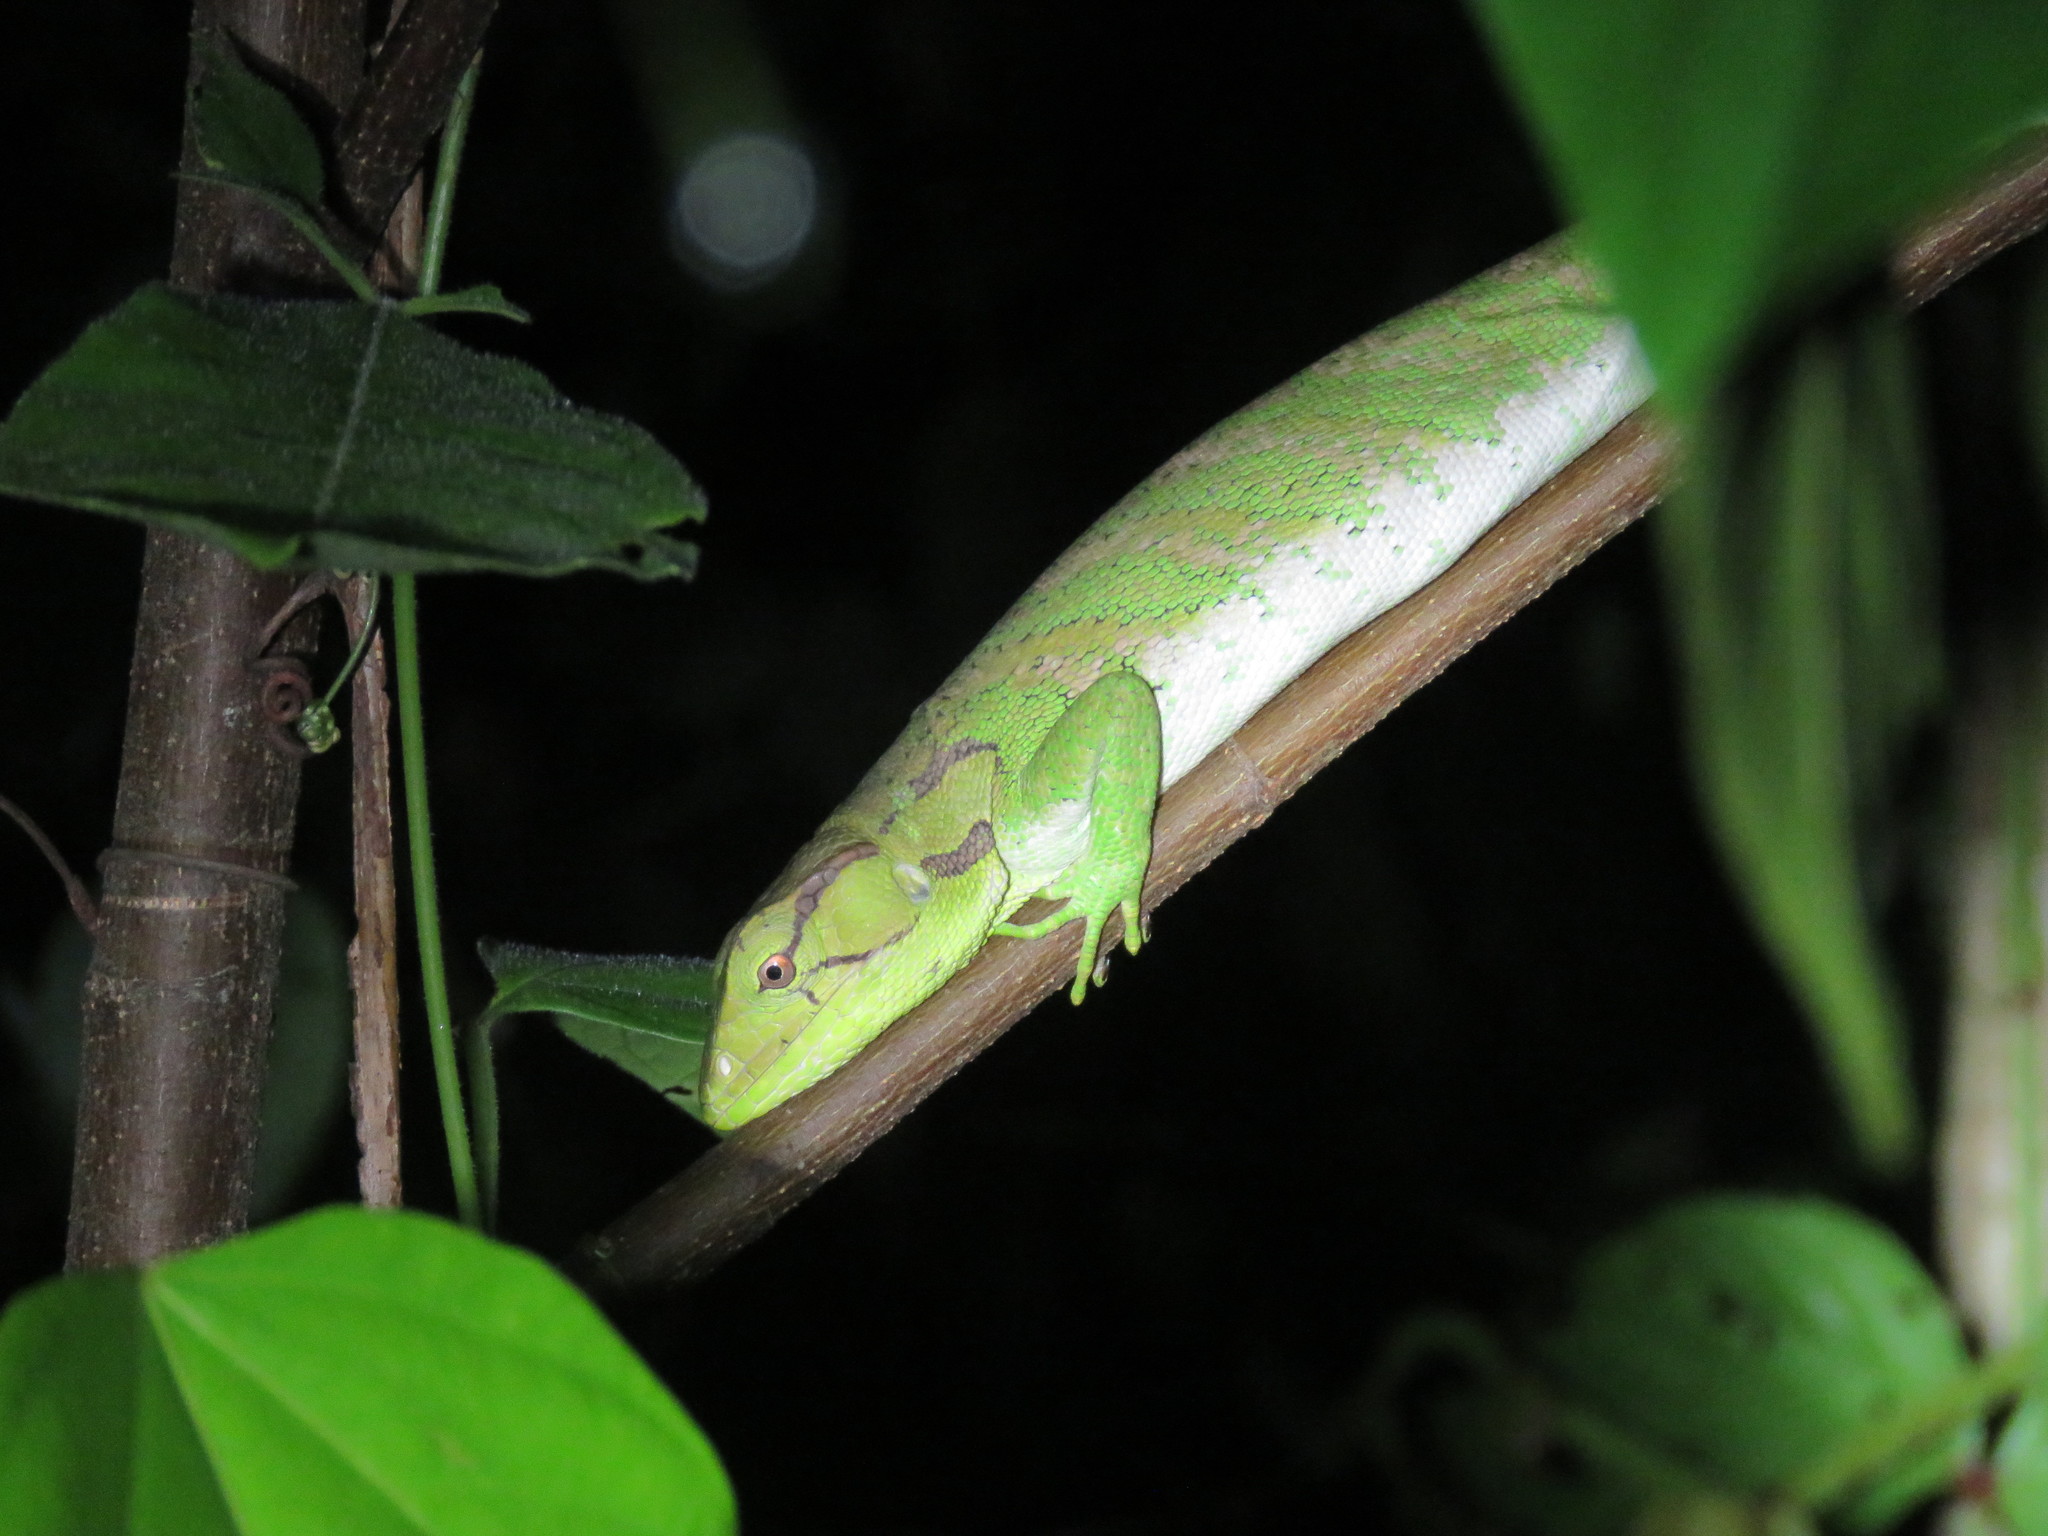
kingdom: Animalia
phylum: Chordata
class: Squamata
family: Polychrotidae
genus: Polychrus
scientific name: Polychrus liogaster
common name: Boulenger's bush anole
